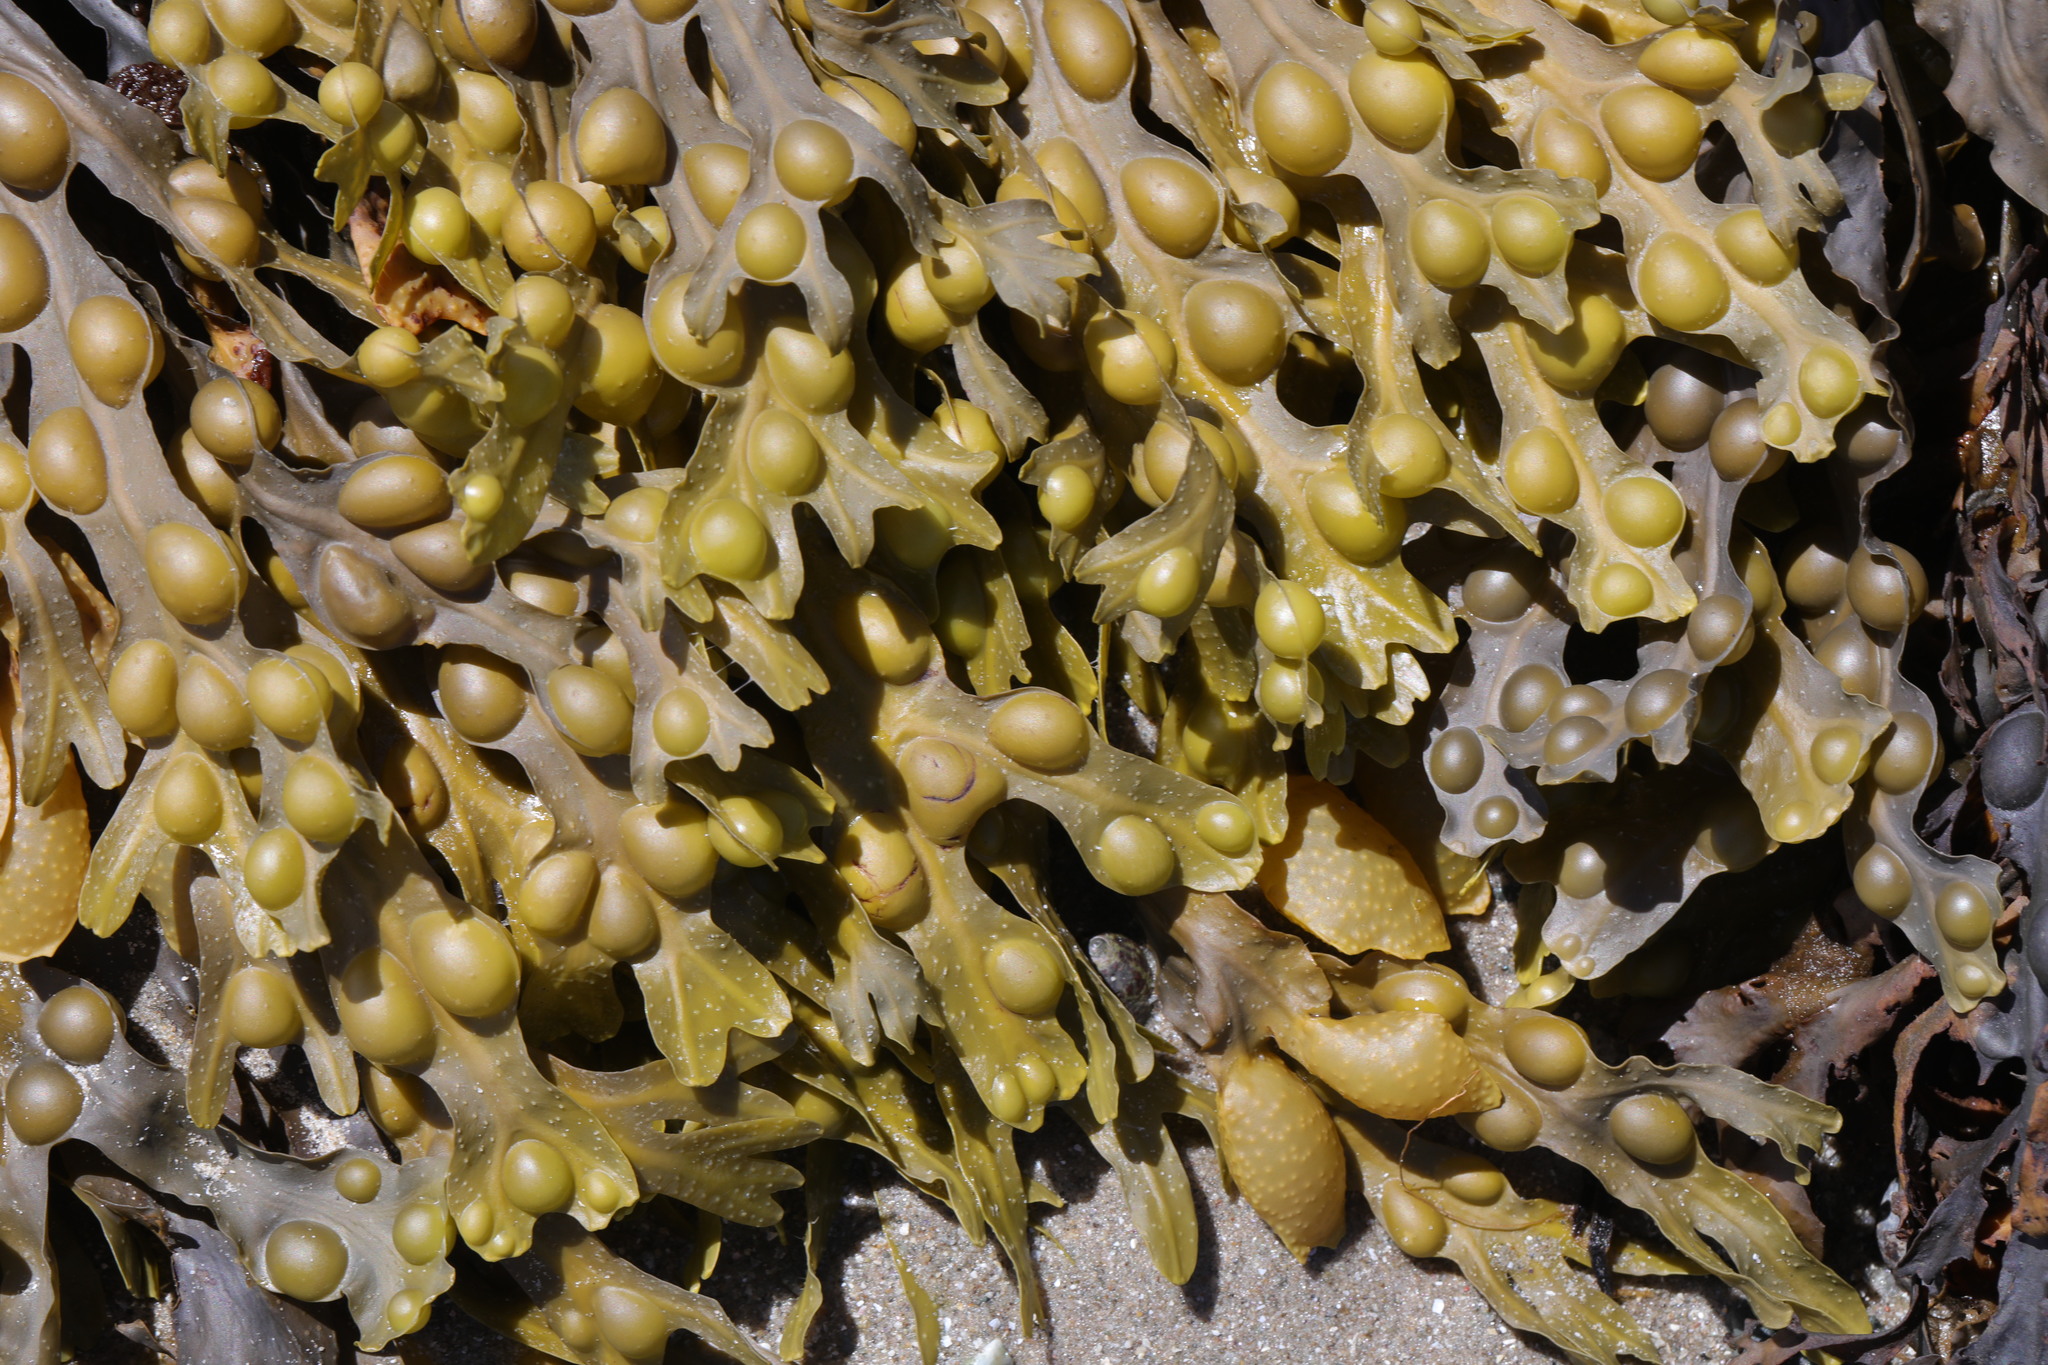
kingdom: Chromista
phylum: Ochrophyta
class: Phaeophyceae
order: Fucales
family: Fucaceae
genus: Fucus
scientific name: Fucus vesiculosus
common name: Bladder wrack
